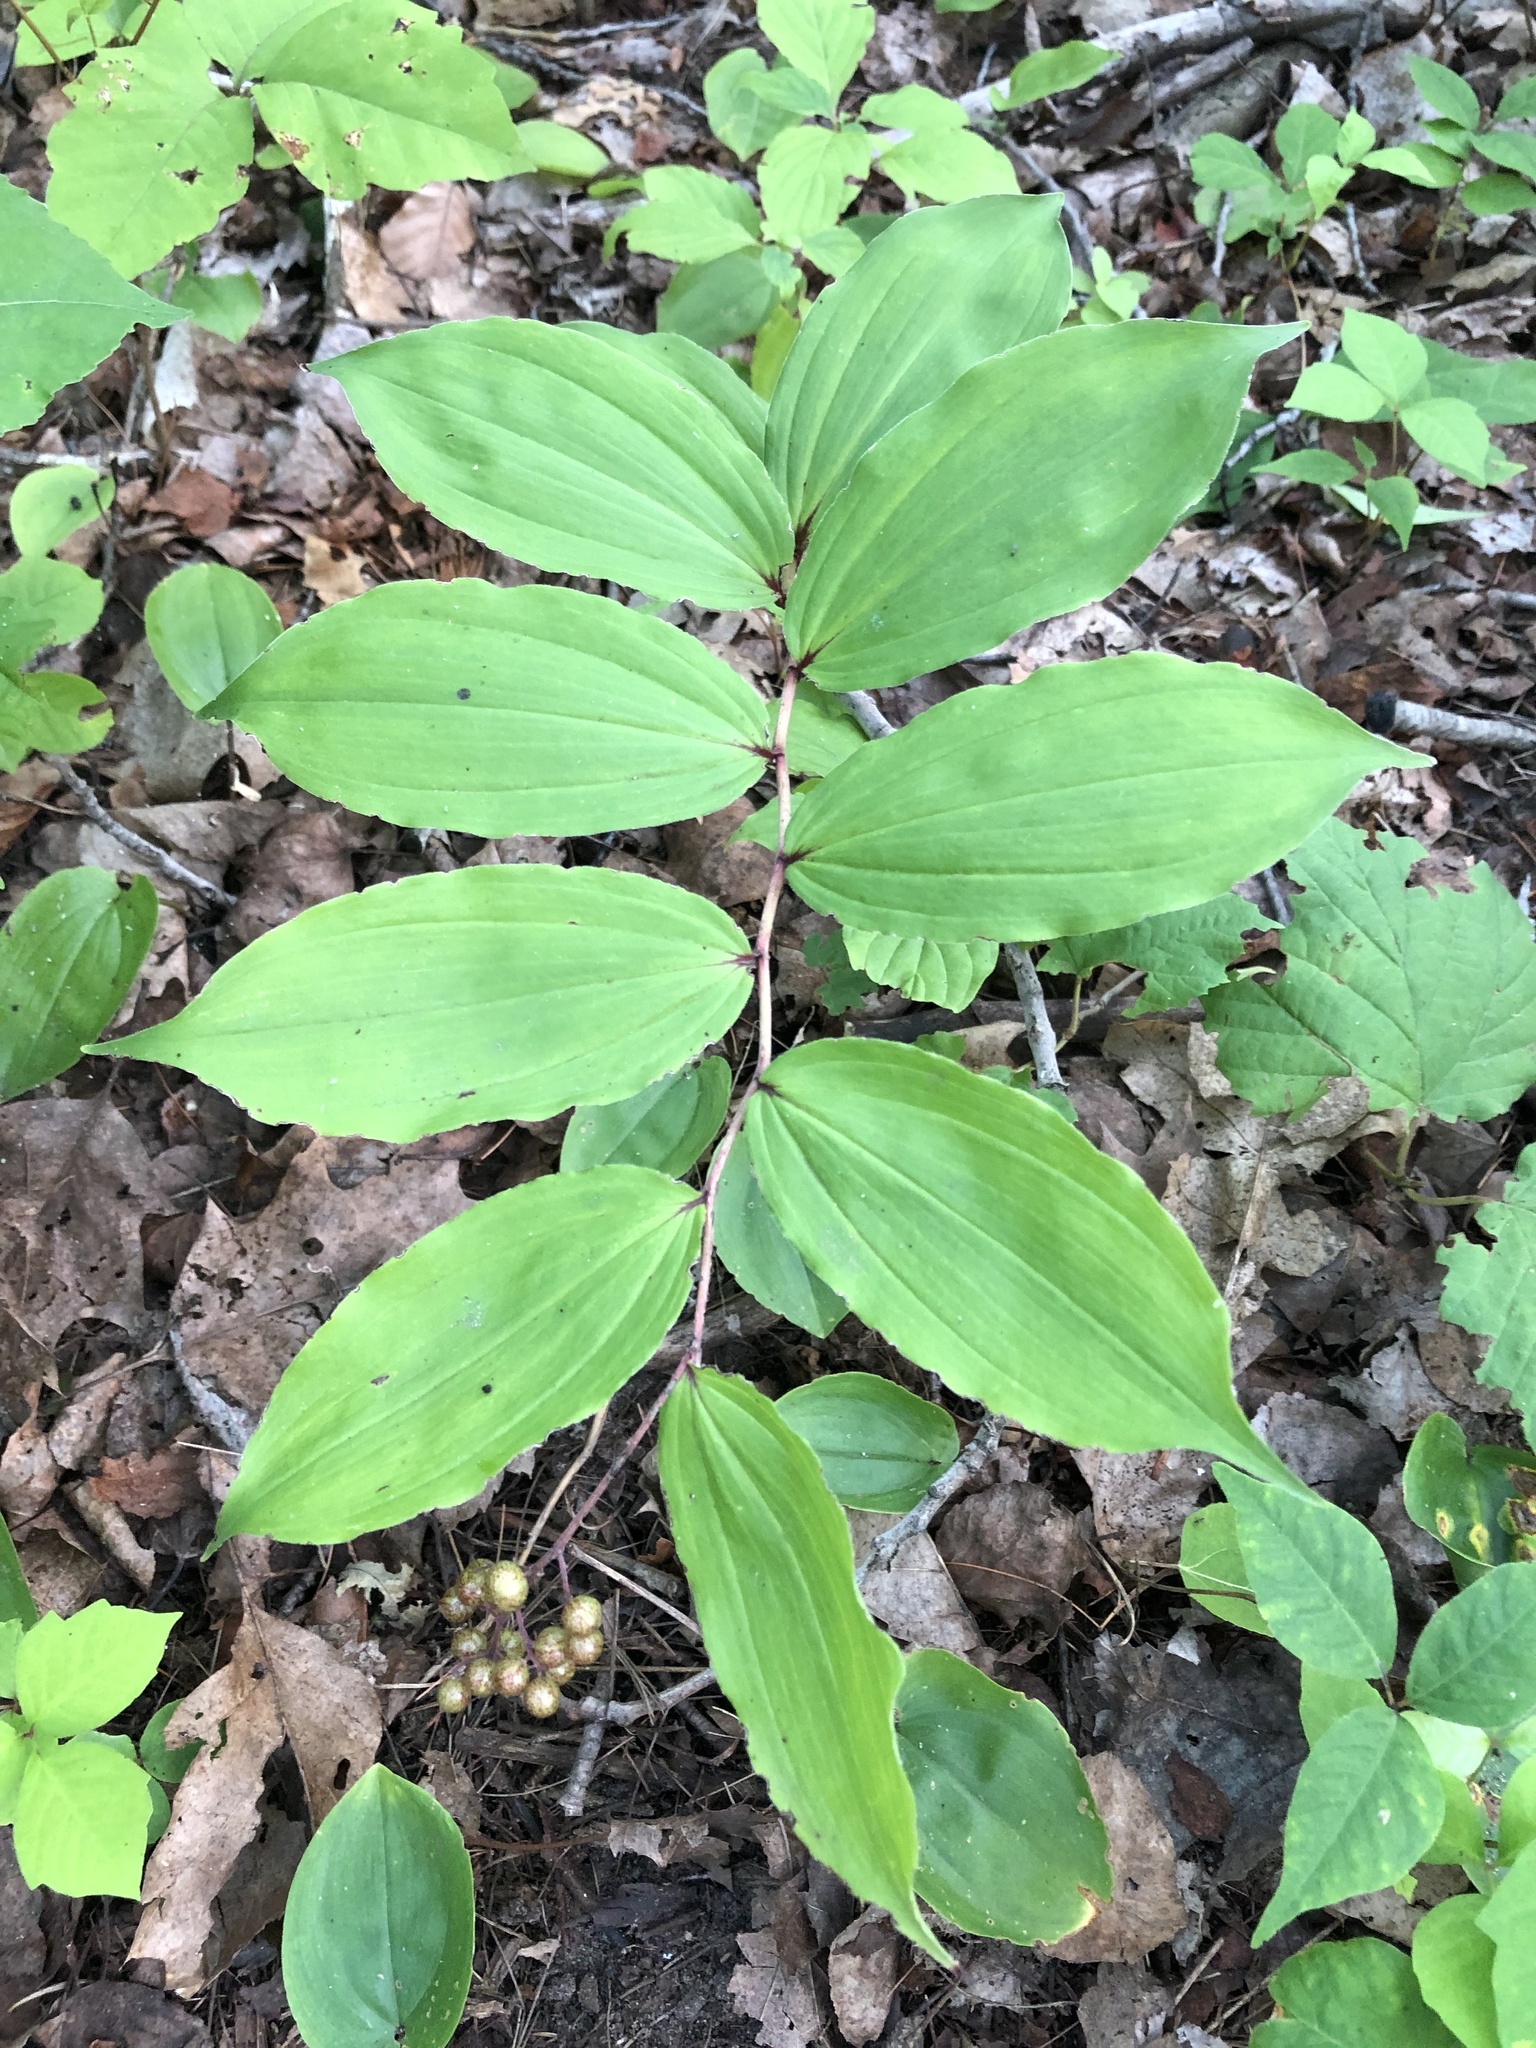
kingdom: Plantae
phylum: Tracheophyta
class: Liliopsida
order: Asparagales
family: Asparagaceae
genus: Maianthemum
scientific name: Maianthemum racemosum
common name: False spikenard
